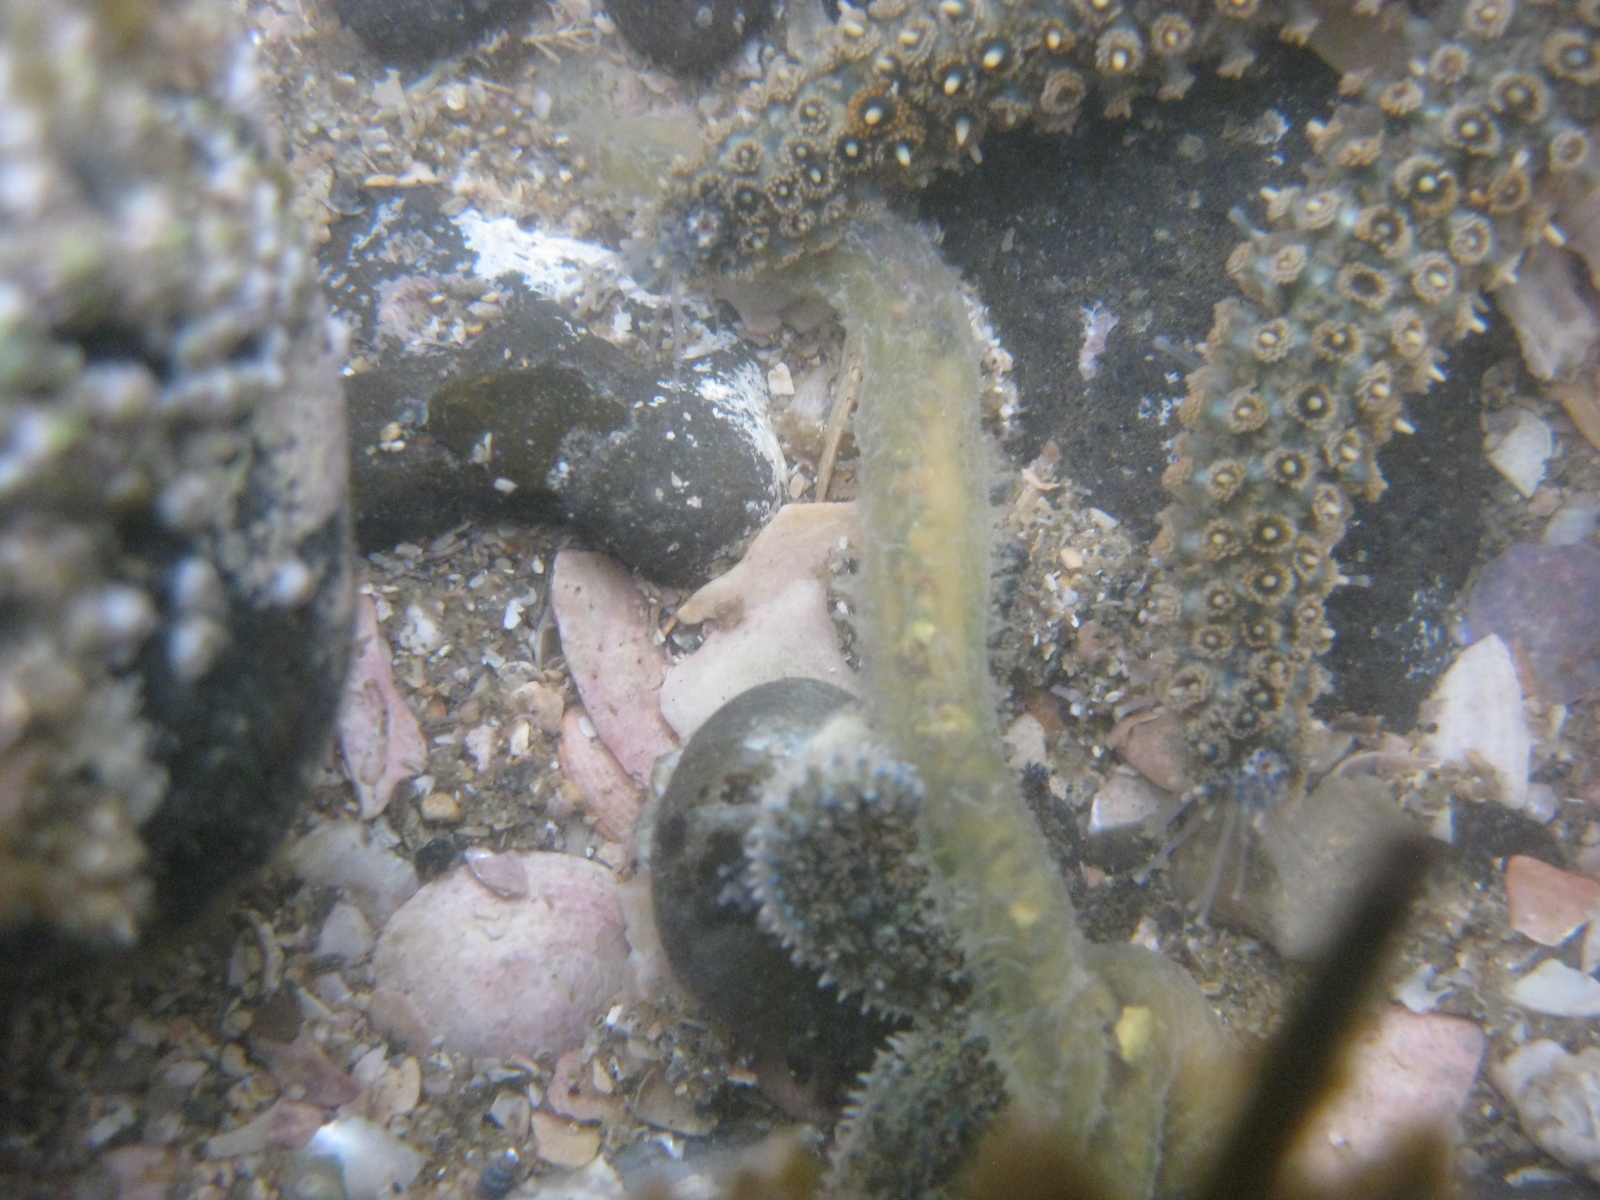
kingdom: Animalia
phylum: Annelida
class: Polychaeta
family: Flabelligeridae
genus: Flabelligera
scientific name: Flabelligera bicolor
